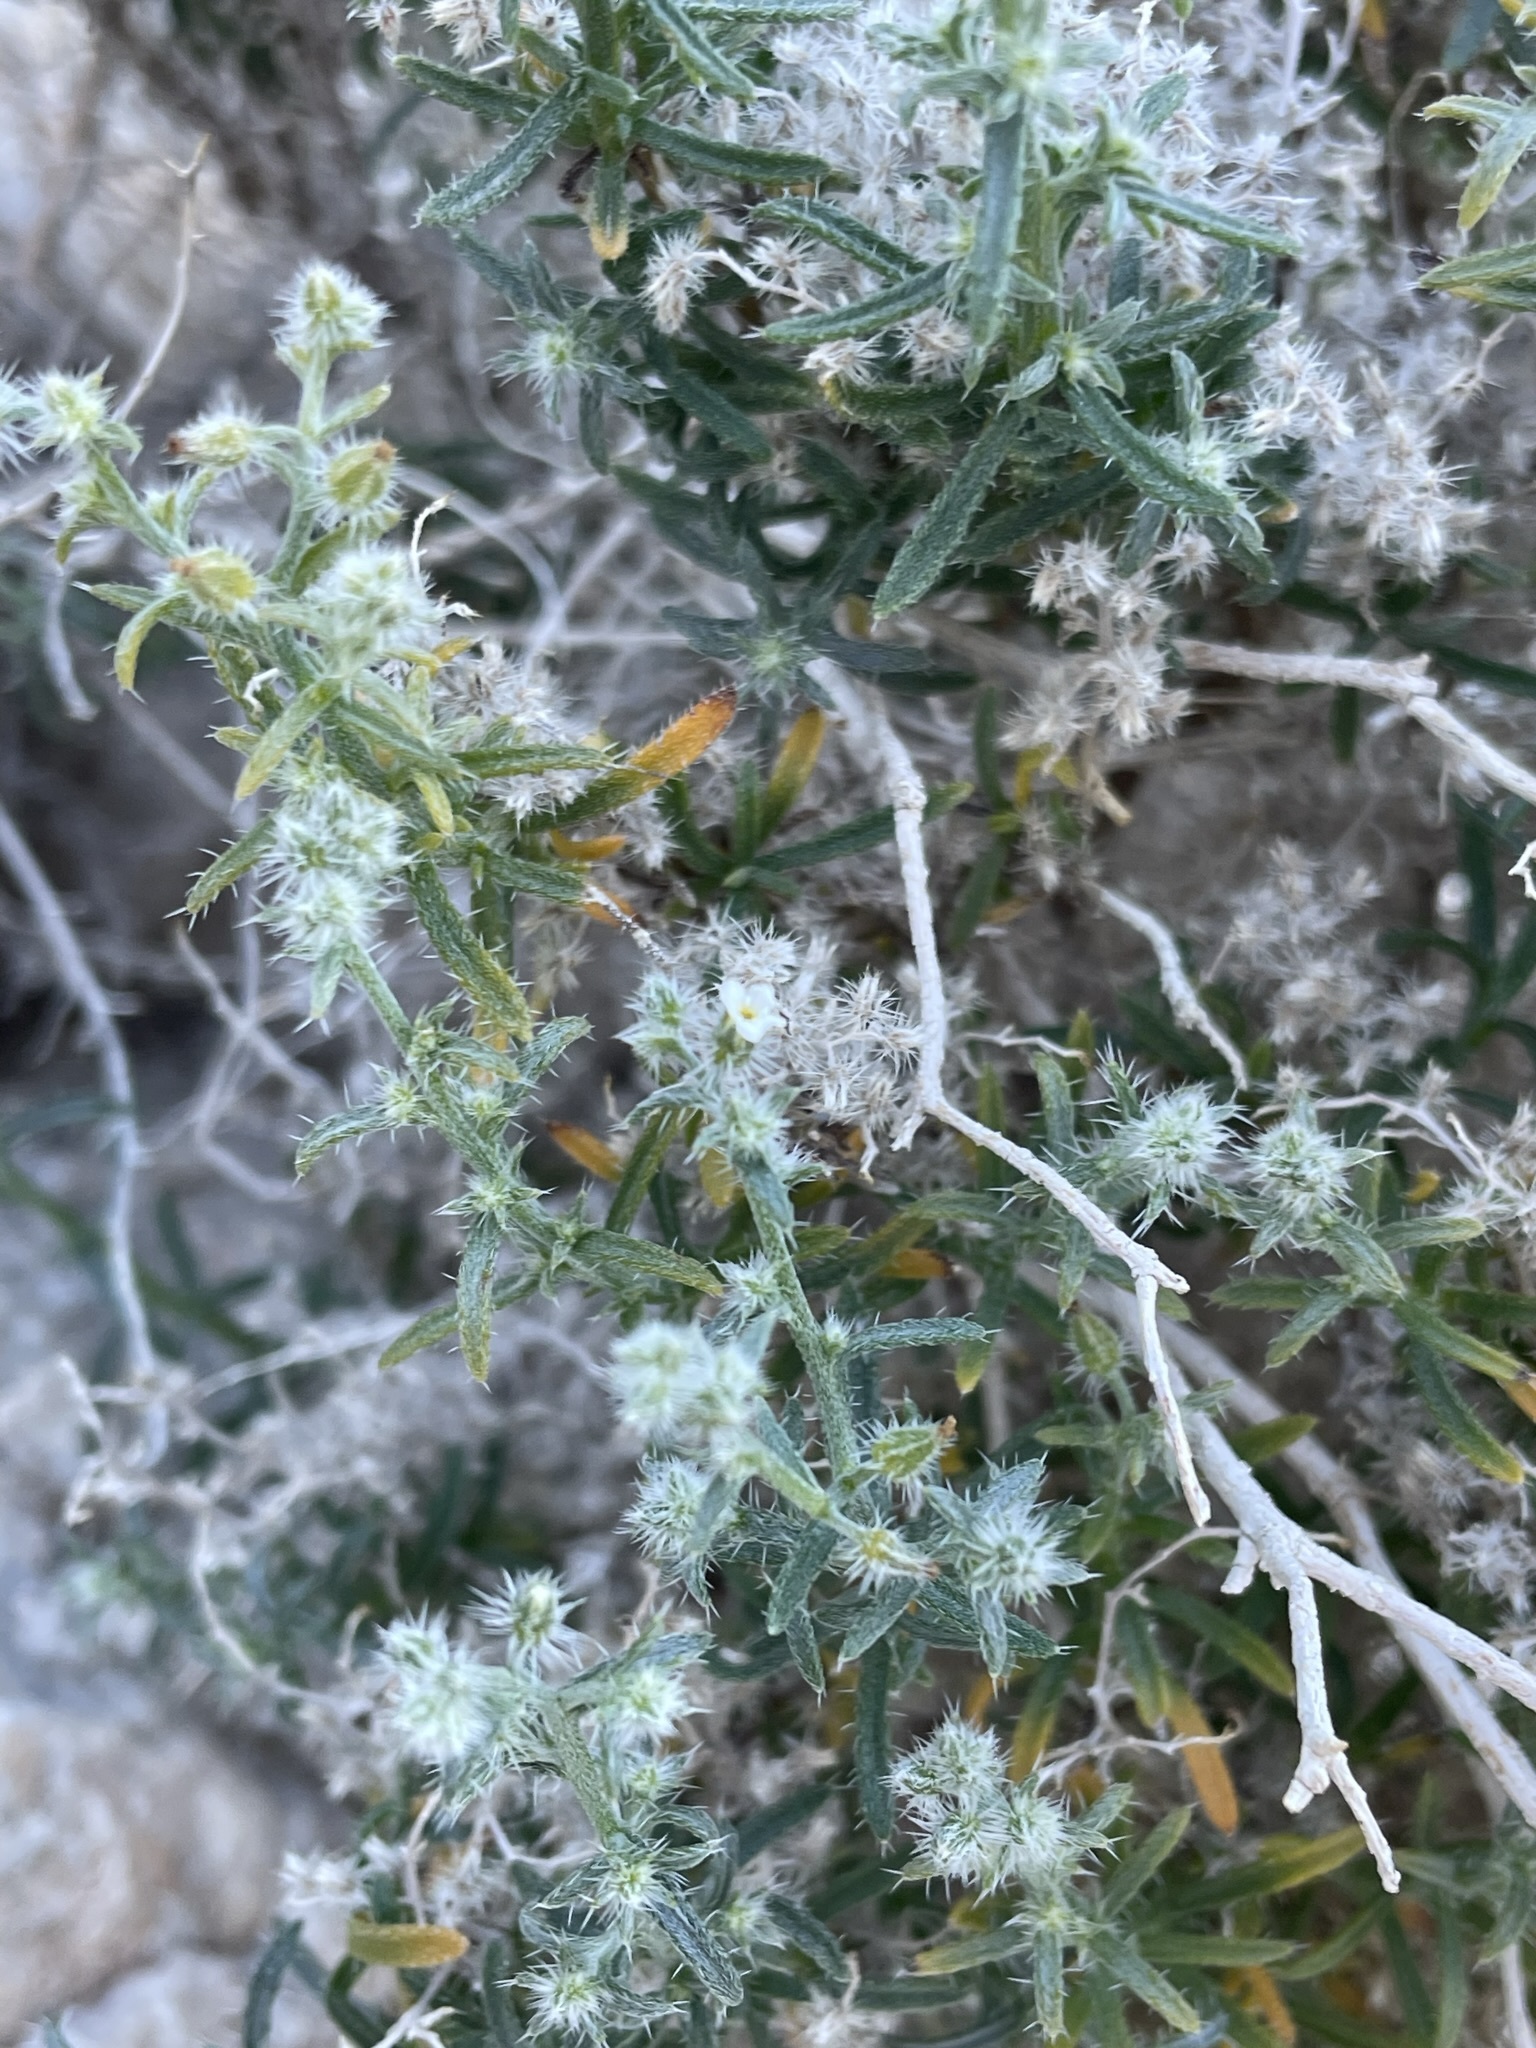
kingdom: Plantae
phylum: Tracheophyta
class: Magnoliopsida
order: Boraginales
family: Boraginaceae
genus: Johnstonella
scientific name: Johnstonella racemosa
